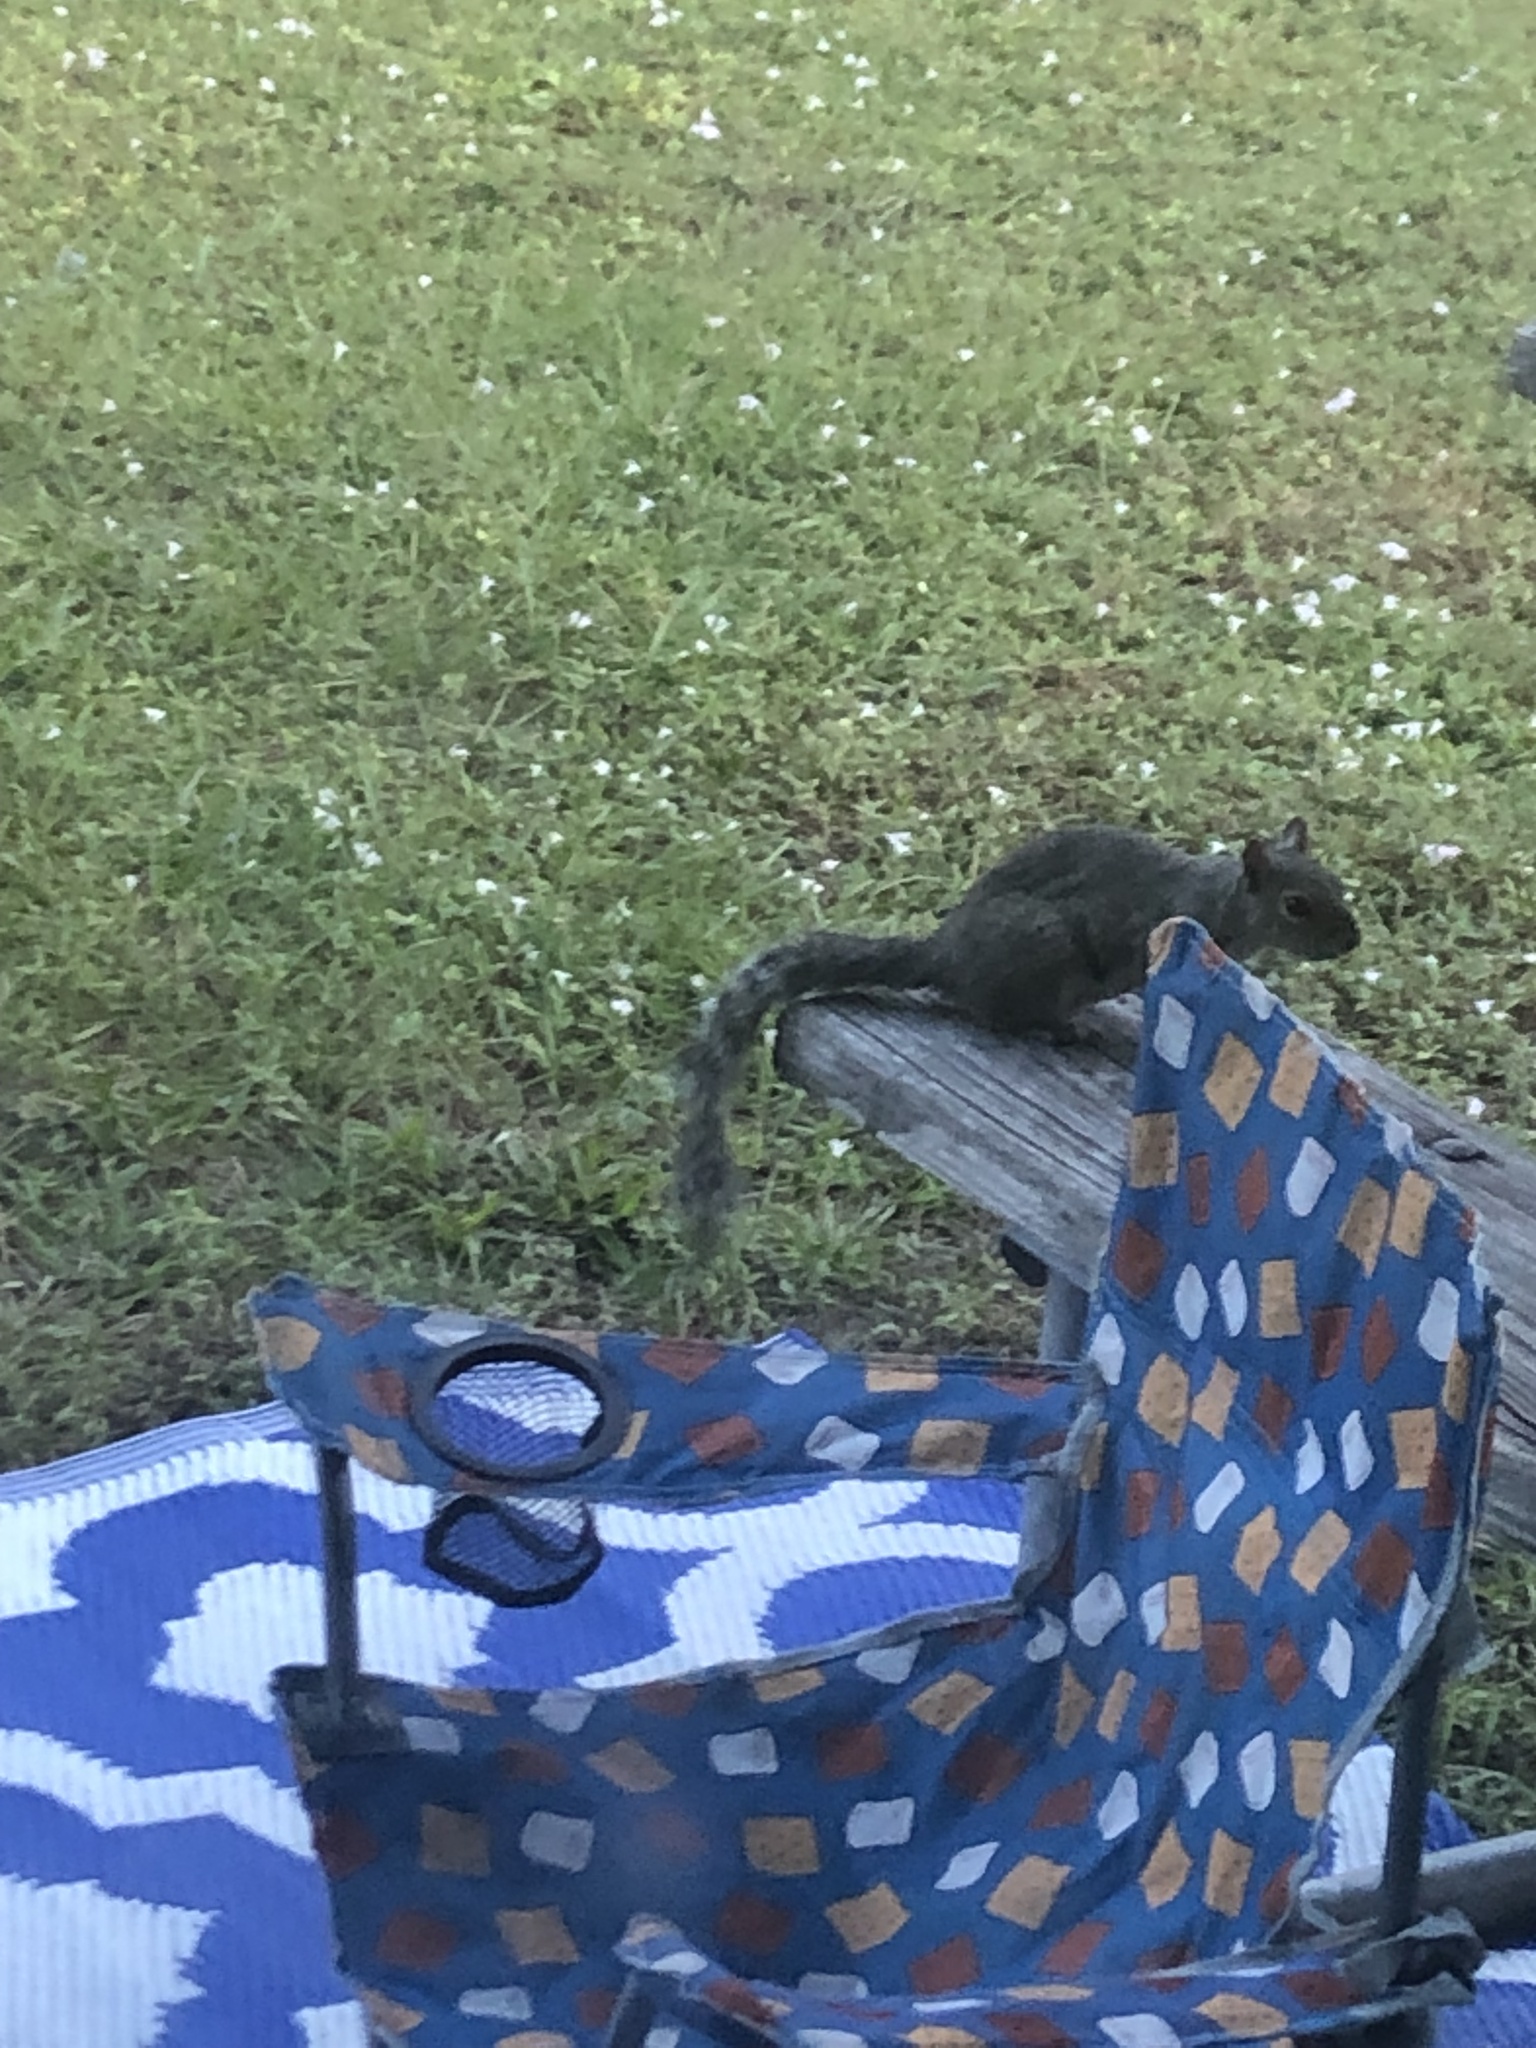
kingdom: Animalia
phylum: Chordata
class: Mammalia
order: Rodentia
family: Sciuridae
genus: Sciurus
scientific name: Sciurus carolinensis
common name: Eastern gray squirrel
